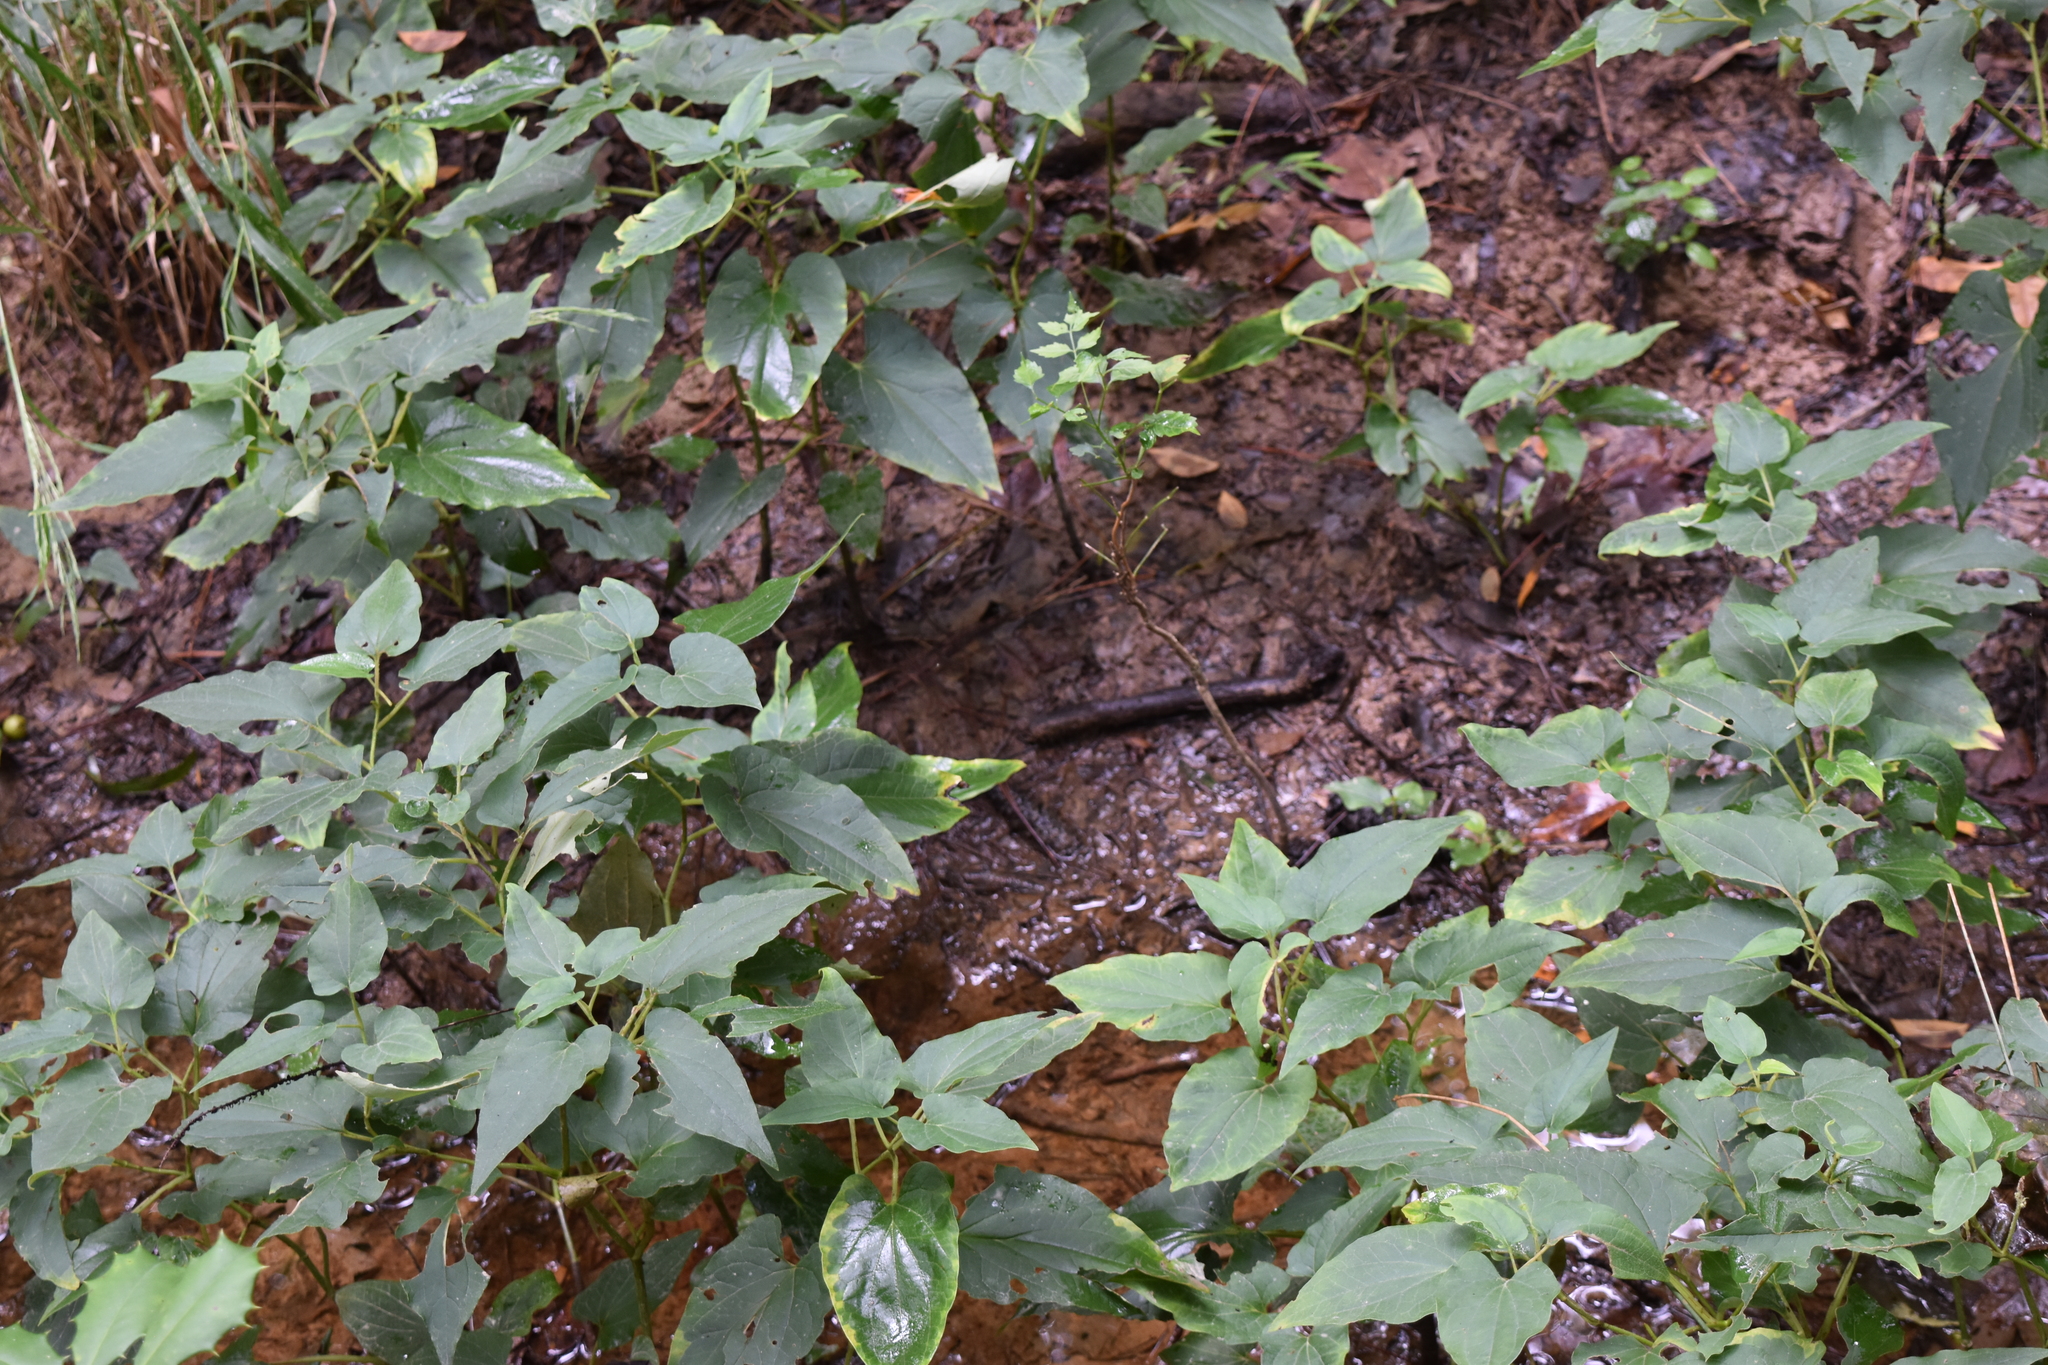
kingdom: Plantae
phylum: Tracheophyta
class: Magnoliopsida
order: Piperales
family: Saururaceae
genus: Saururus
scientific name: Saururus cernuus
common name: Lizard's-tail
